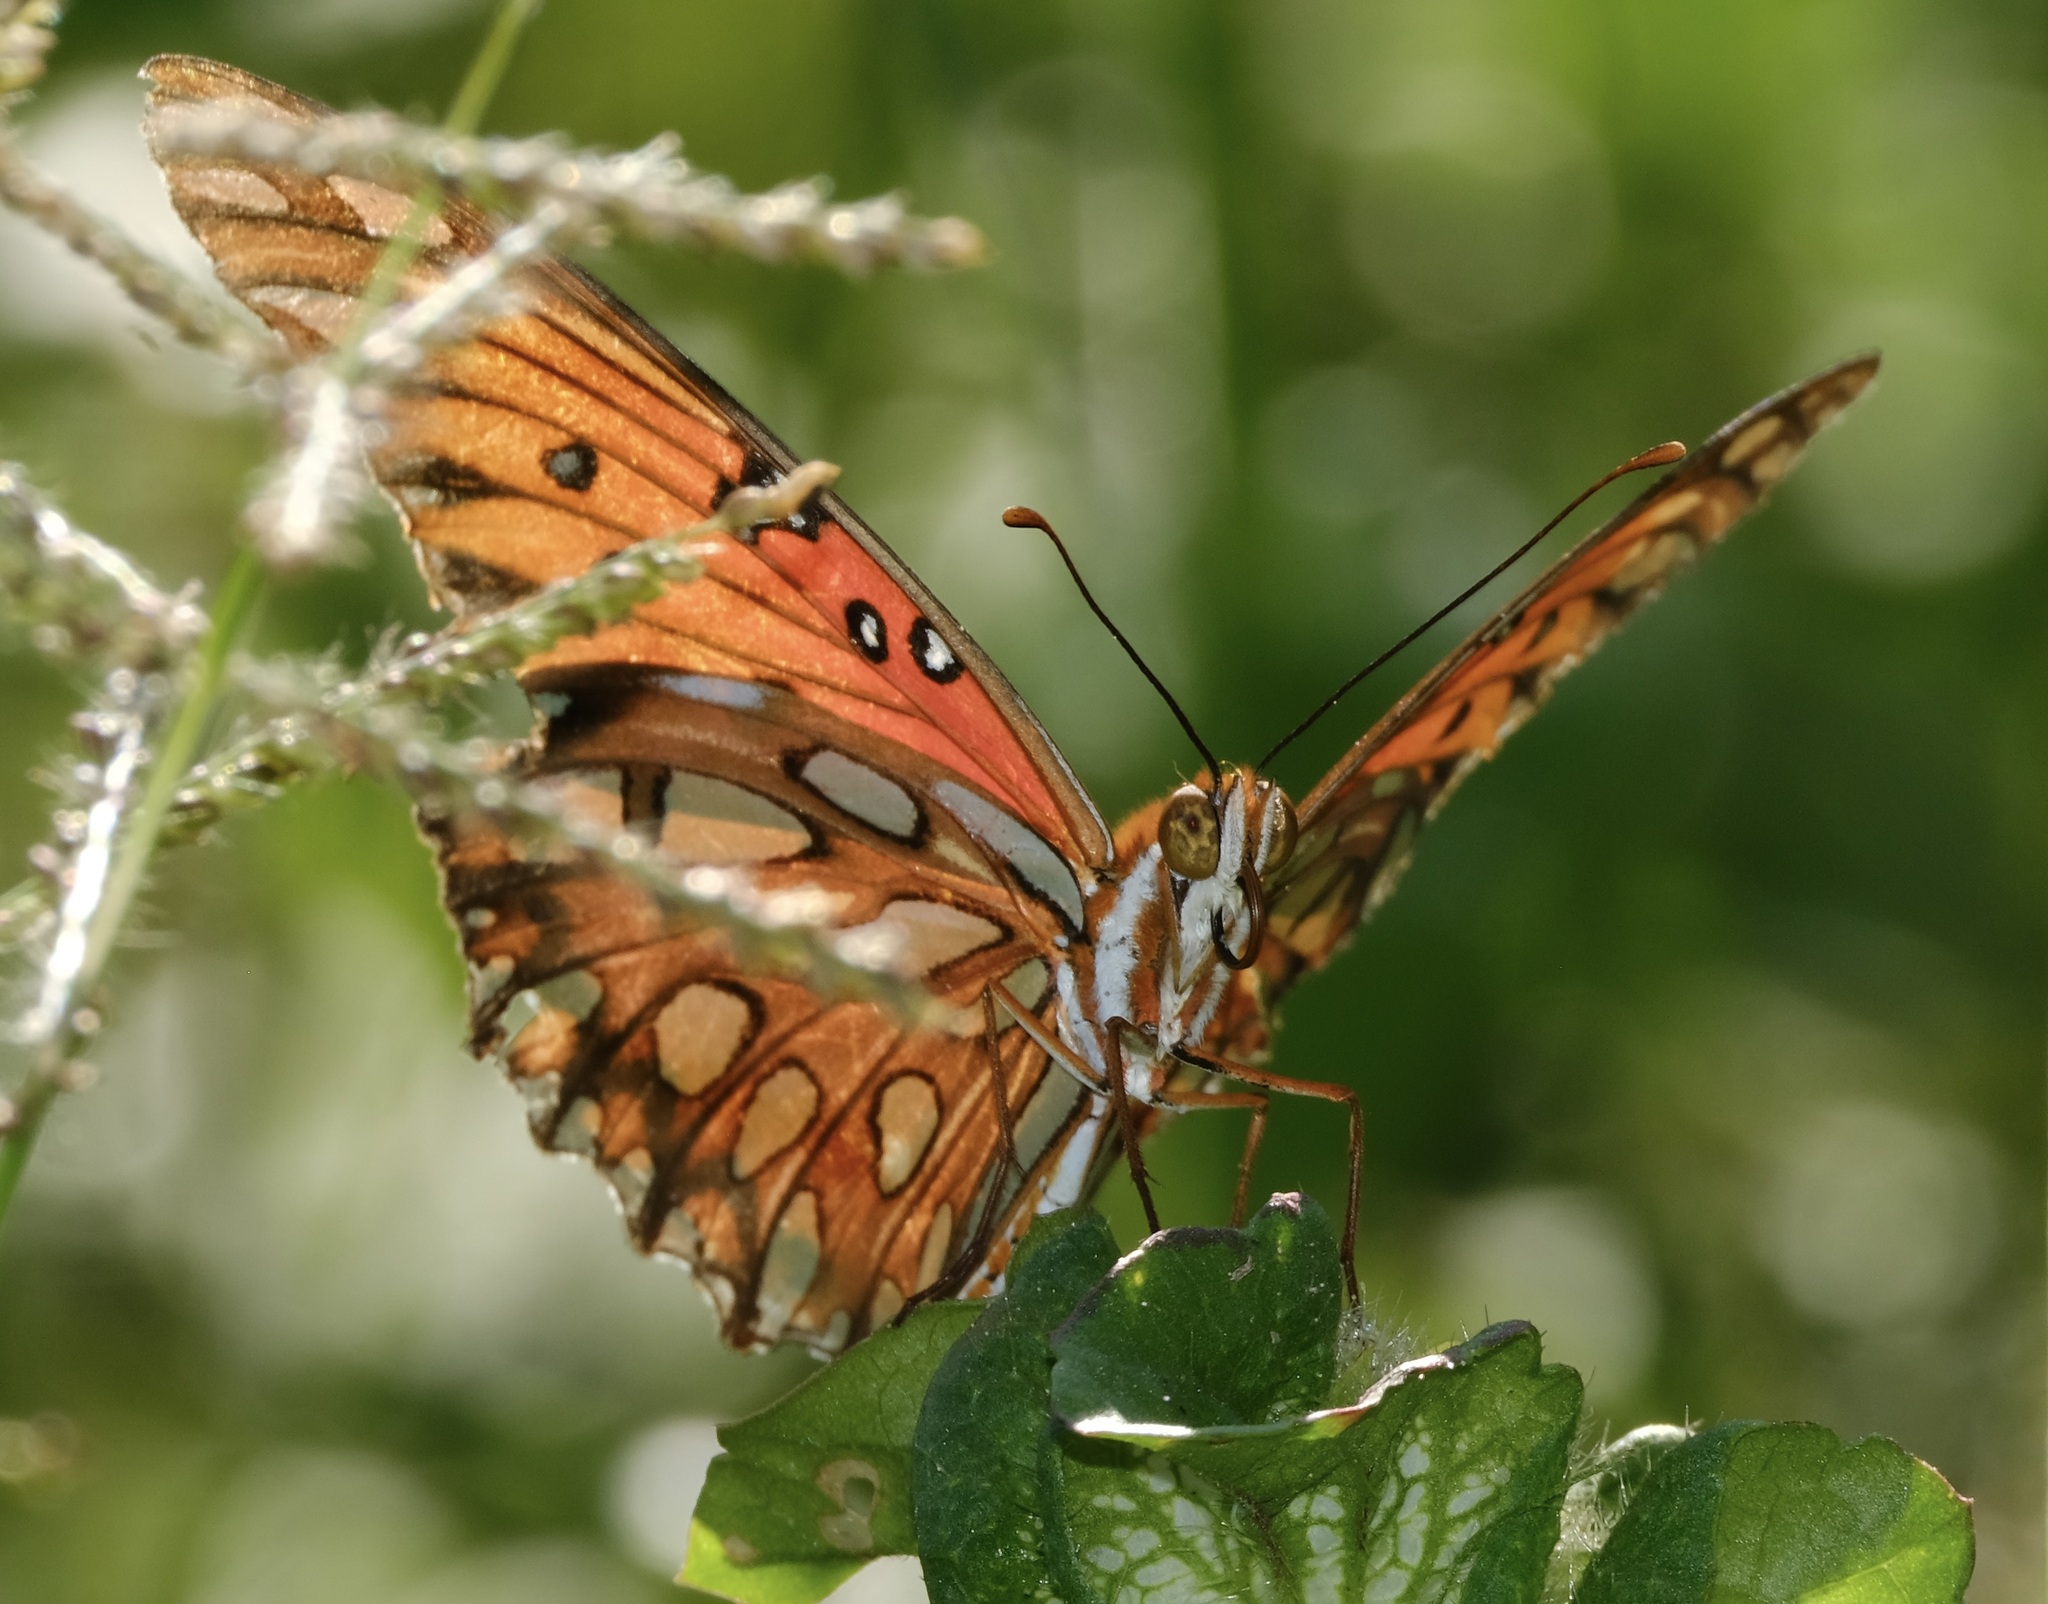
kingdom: Animalia
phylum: Arthropoda
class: Insecta
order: Lepidoptera
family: Nymphalidae
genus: Dione
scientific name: Dione vanillae
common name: Gulf fritillary
